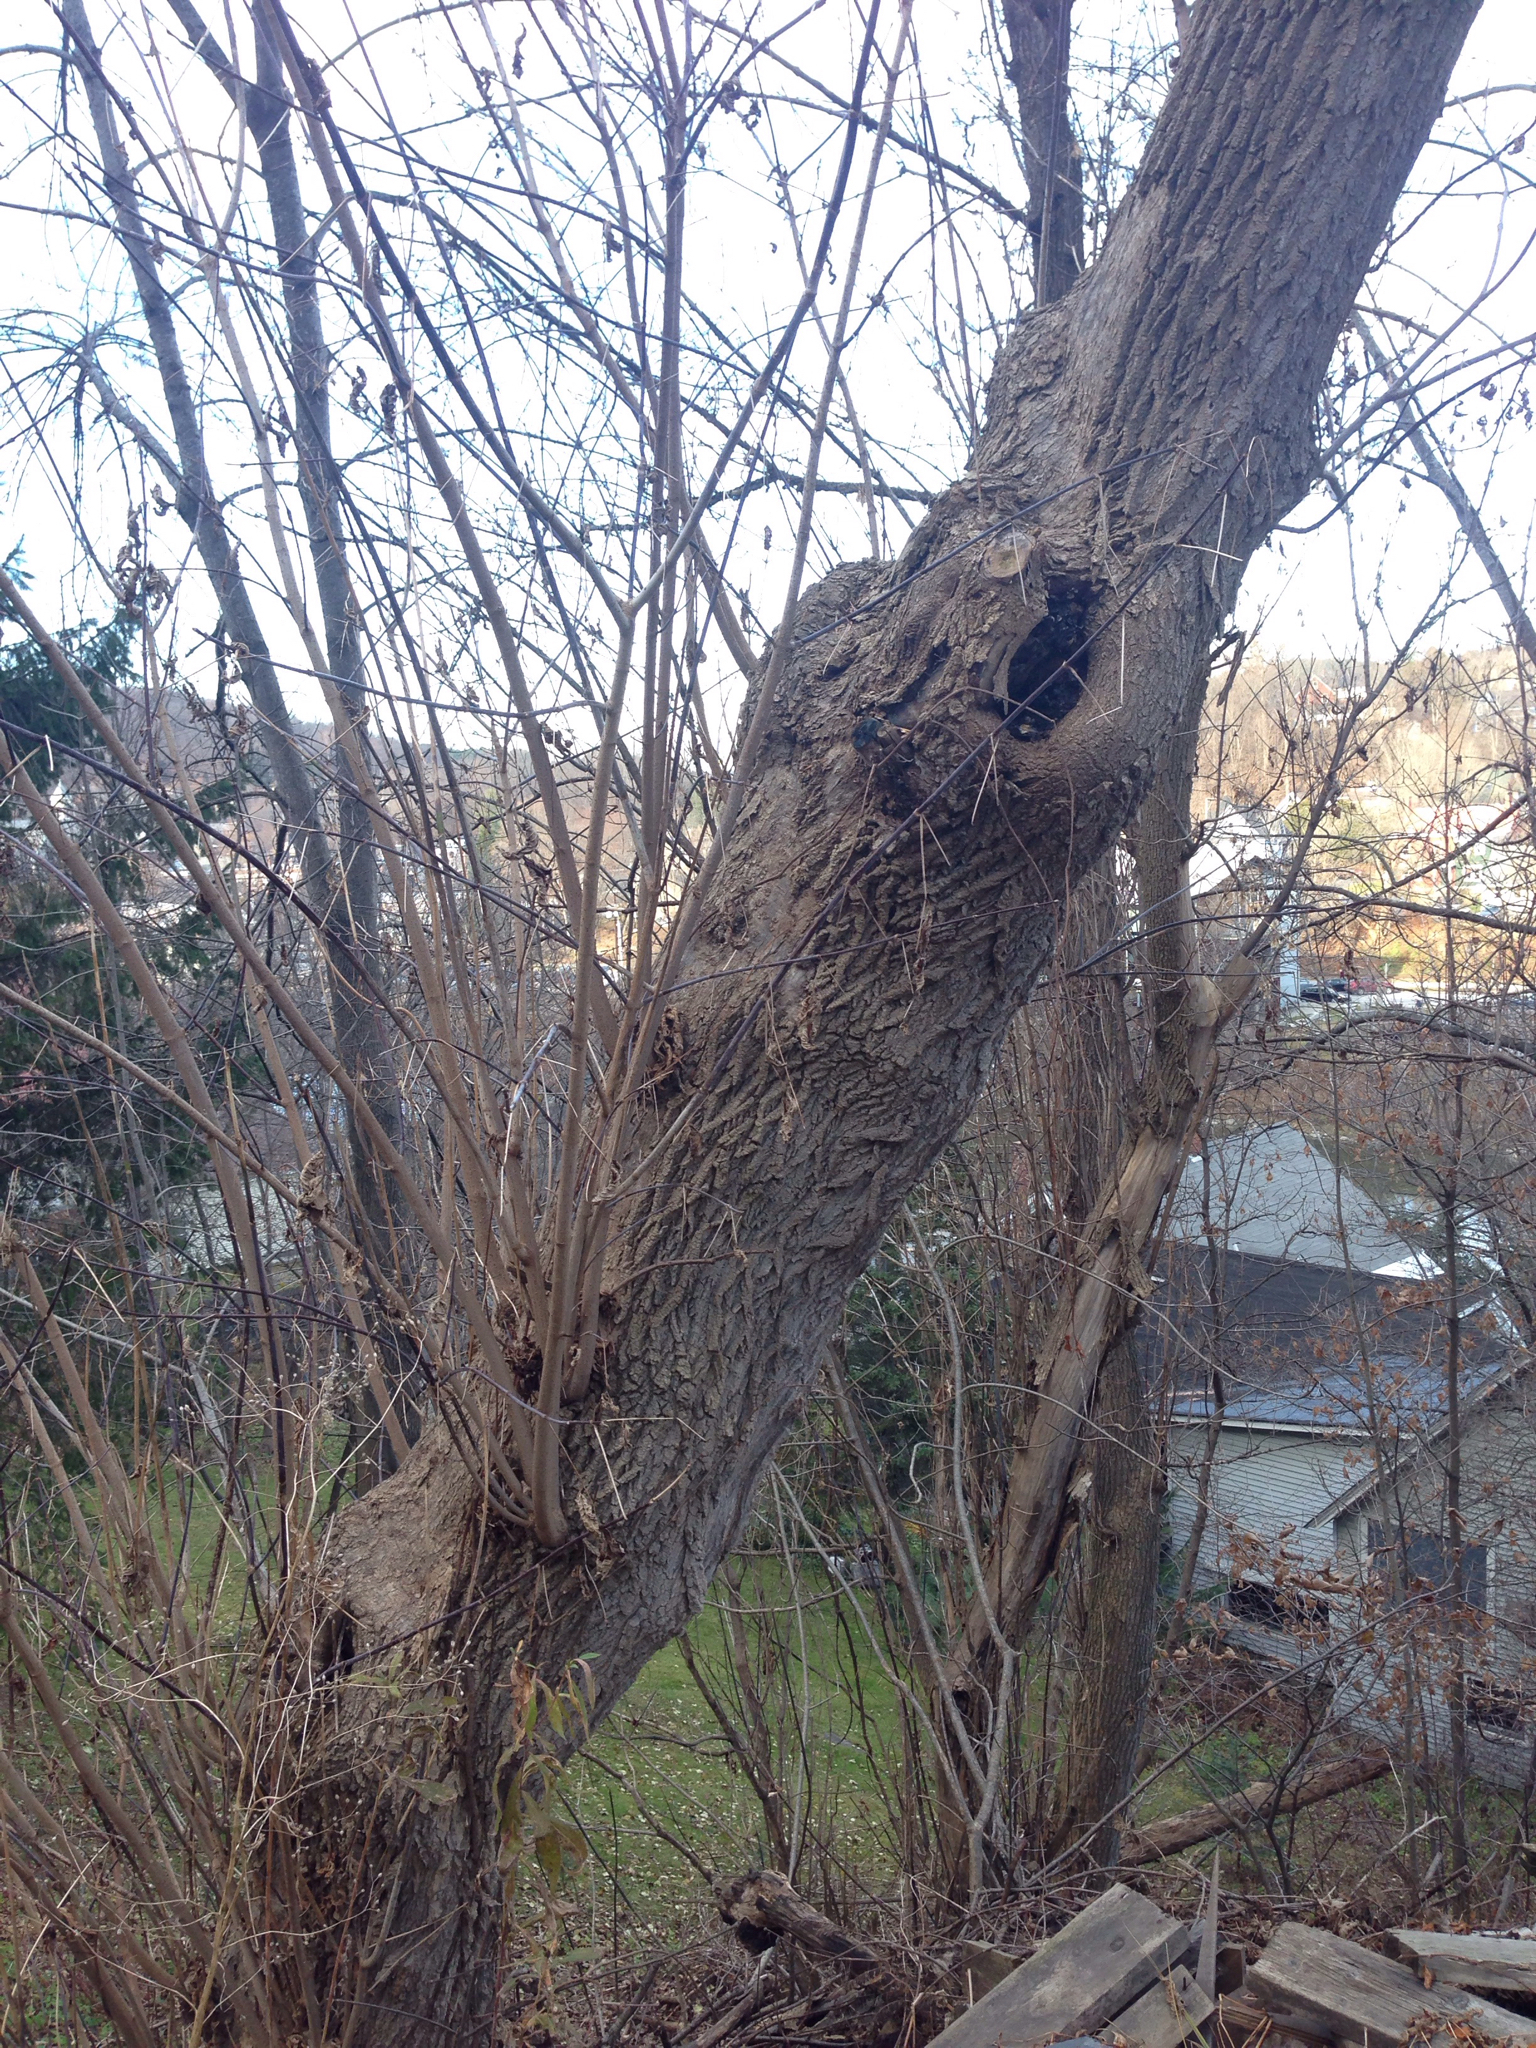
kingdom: Plantae
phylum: Tracheophyta
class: Magnoliopsida
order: Sapindales
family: Sapindaceae
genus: Acer
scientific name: Acer negundo
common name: Ashleaf maple
